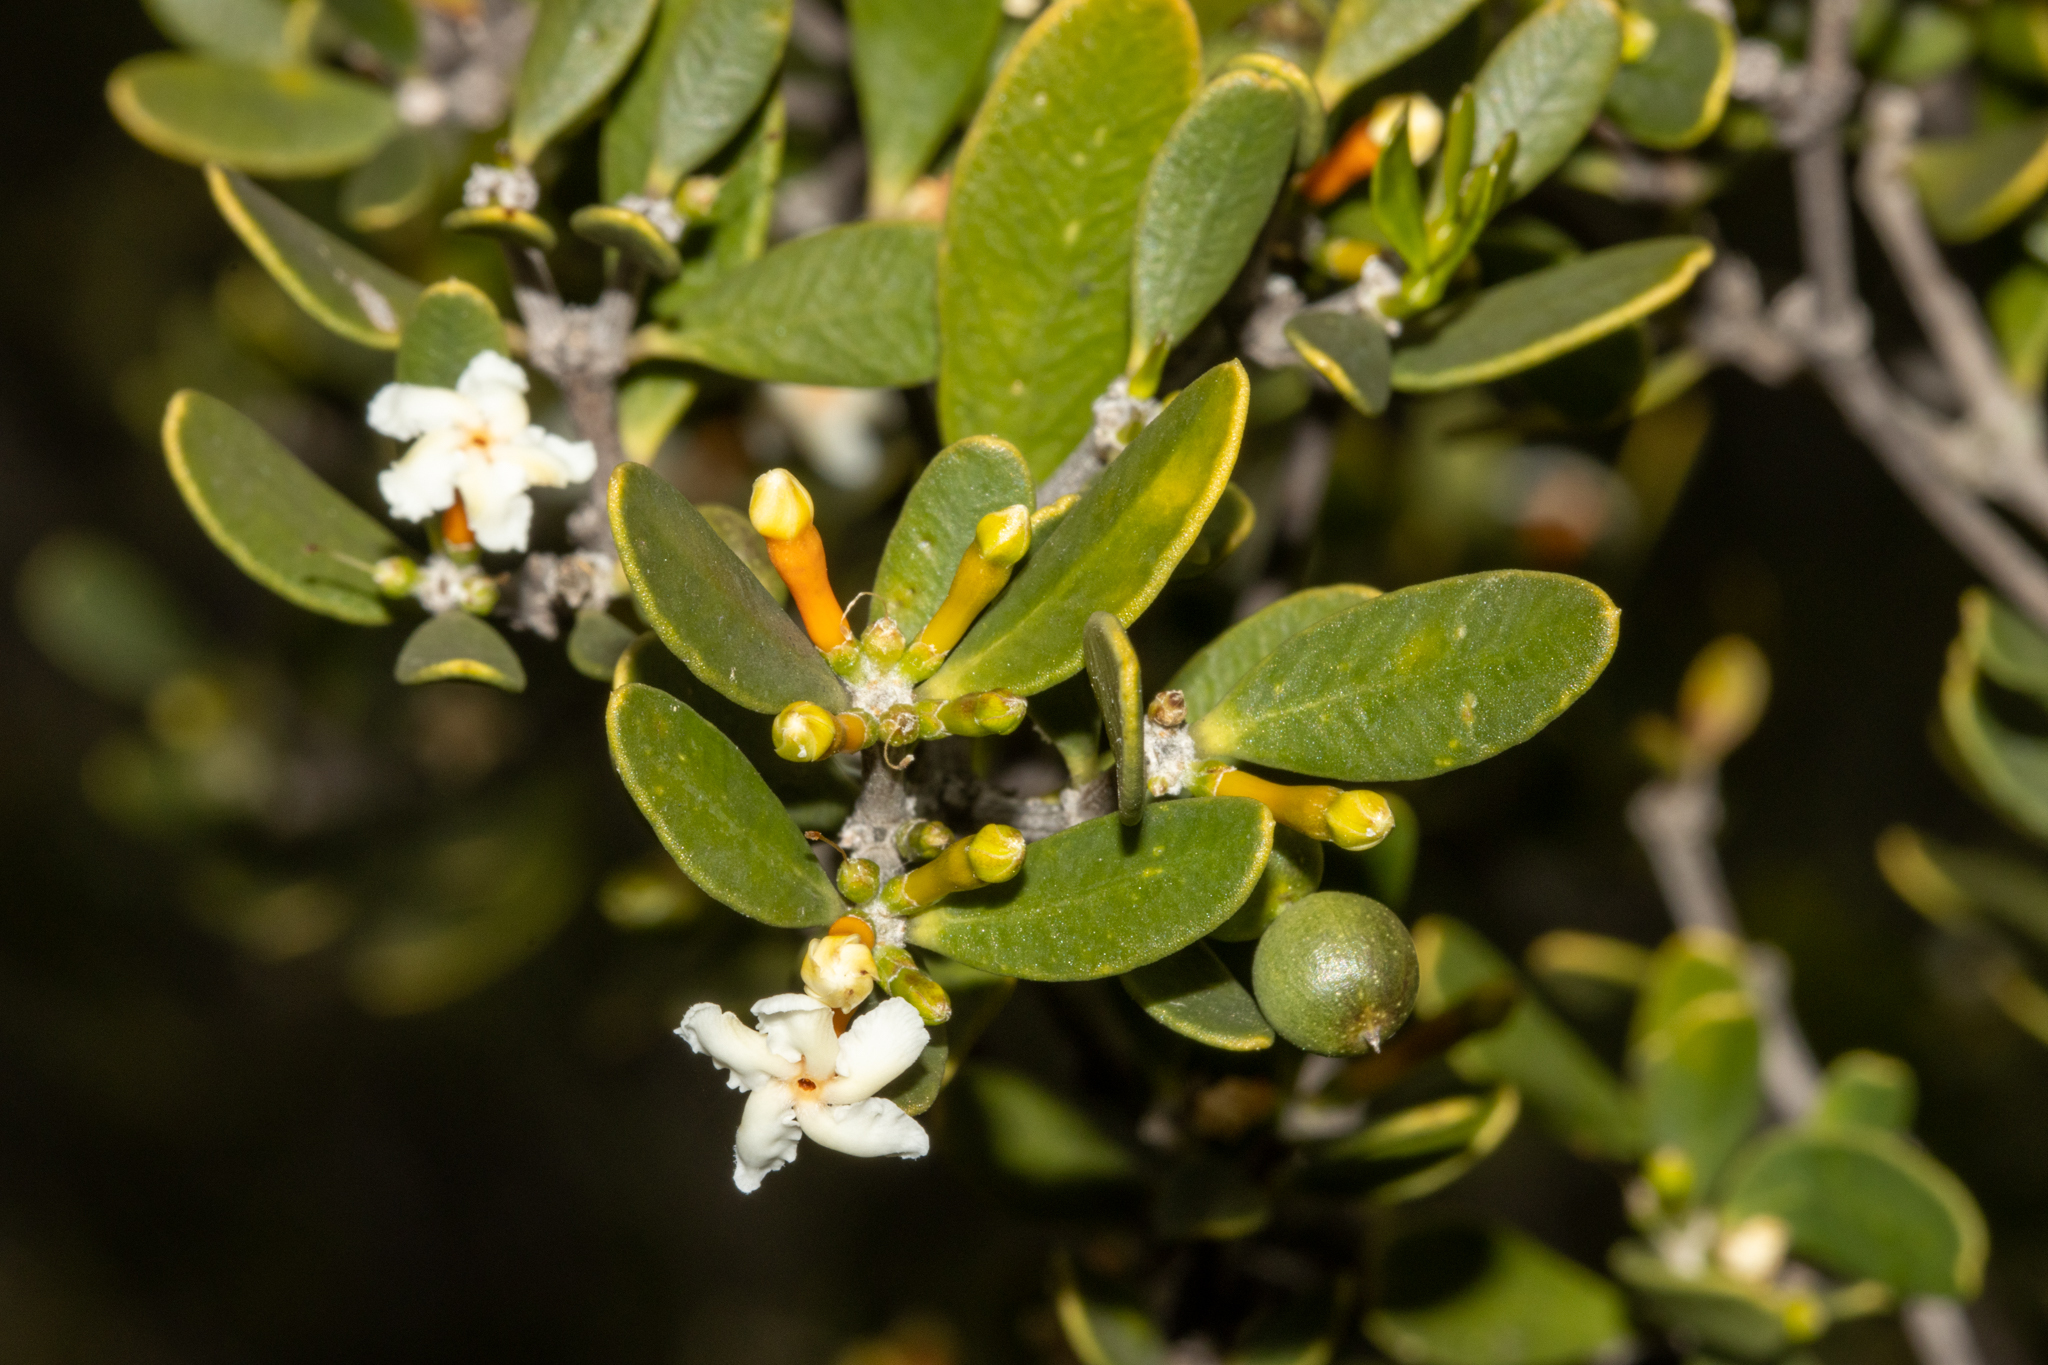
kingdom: Plantae
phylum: Tracheophyta
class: Magnoliopsida
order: Gentianales
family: Apocynaceae
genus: Alyxia
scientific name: Alyxia buxifolia
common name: Dysentery-bush
